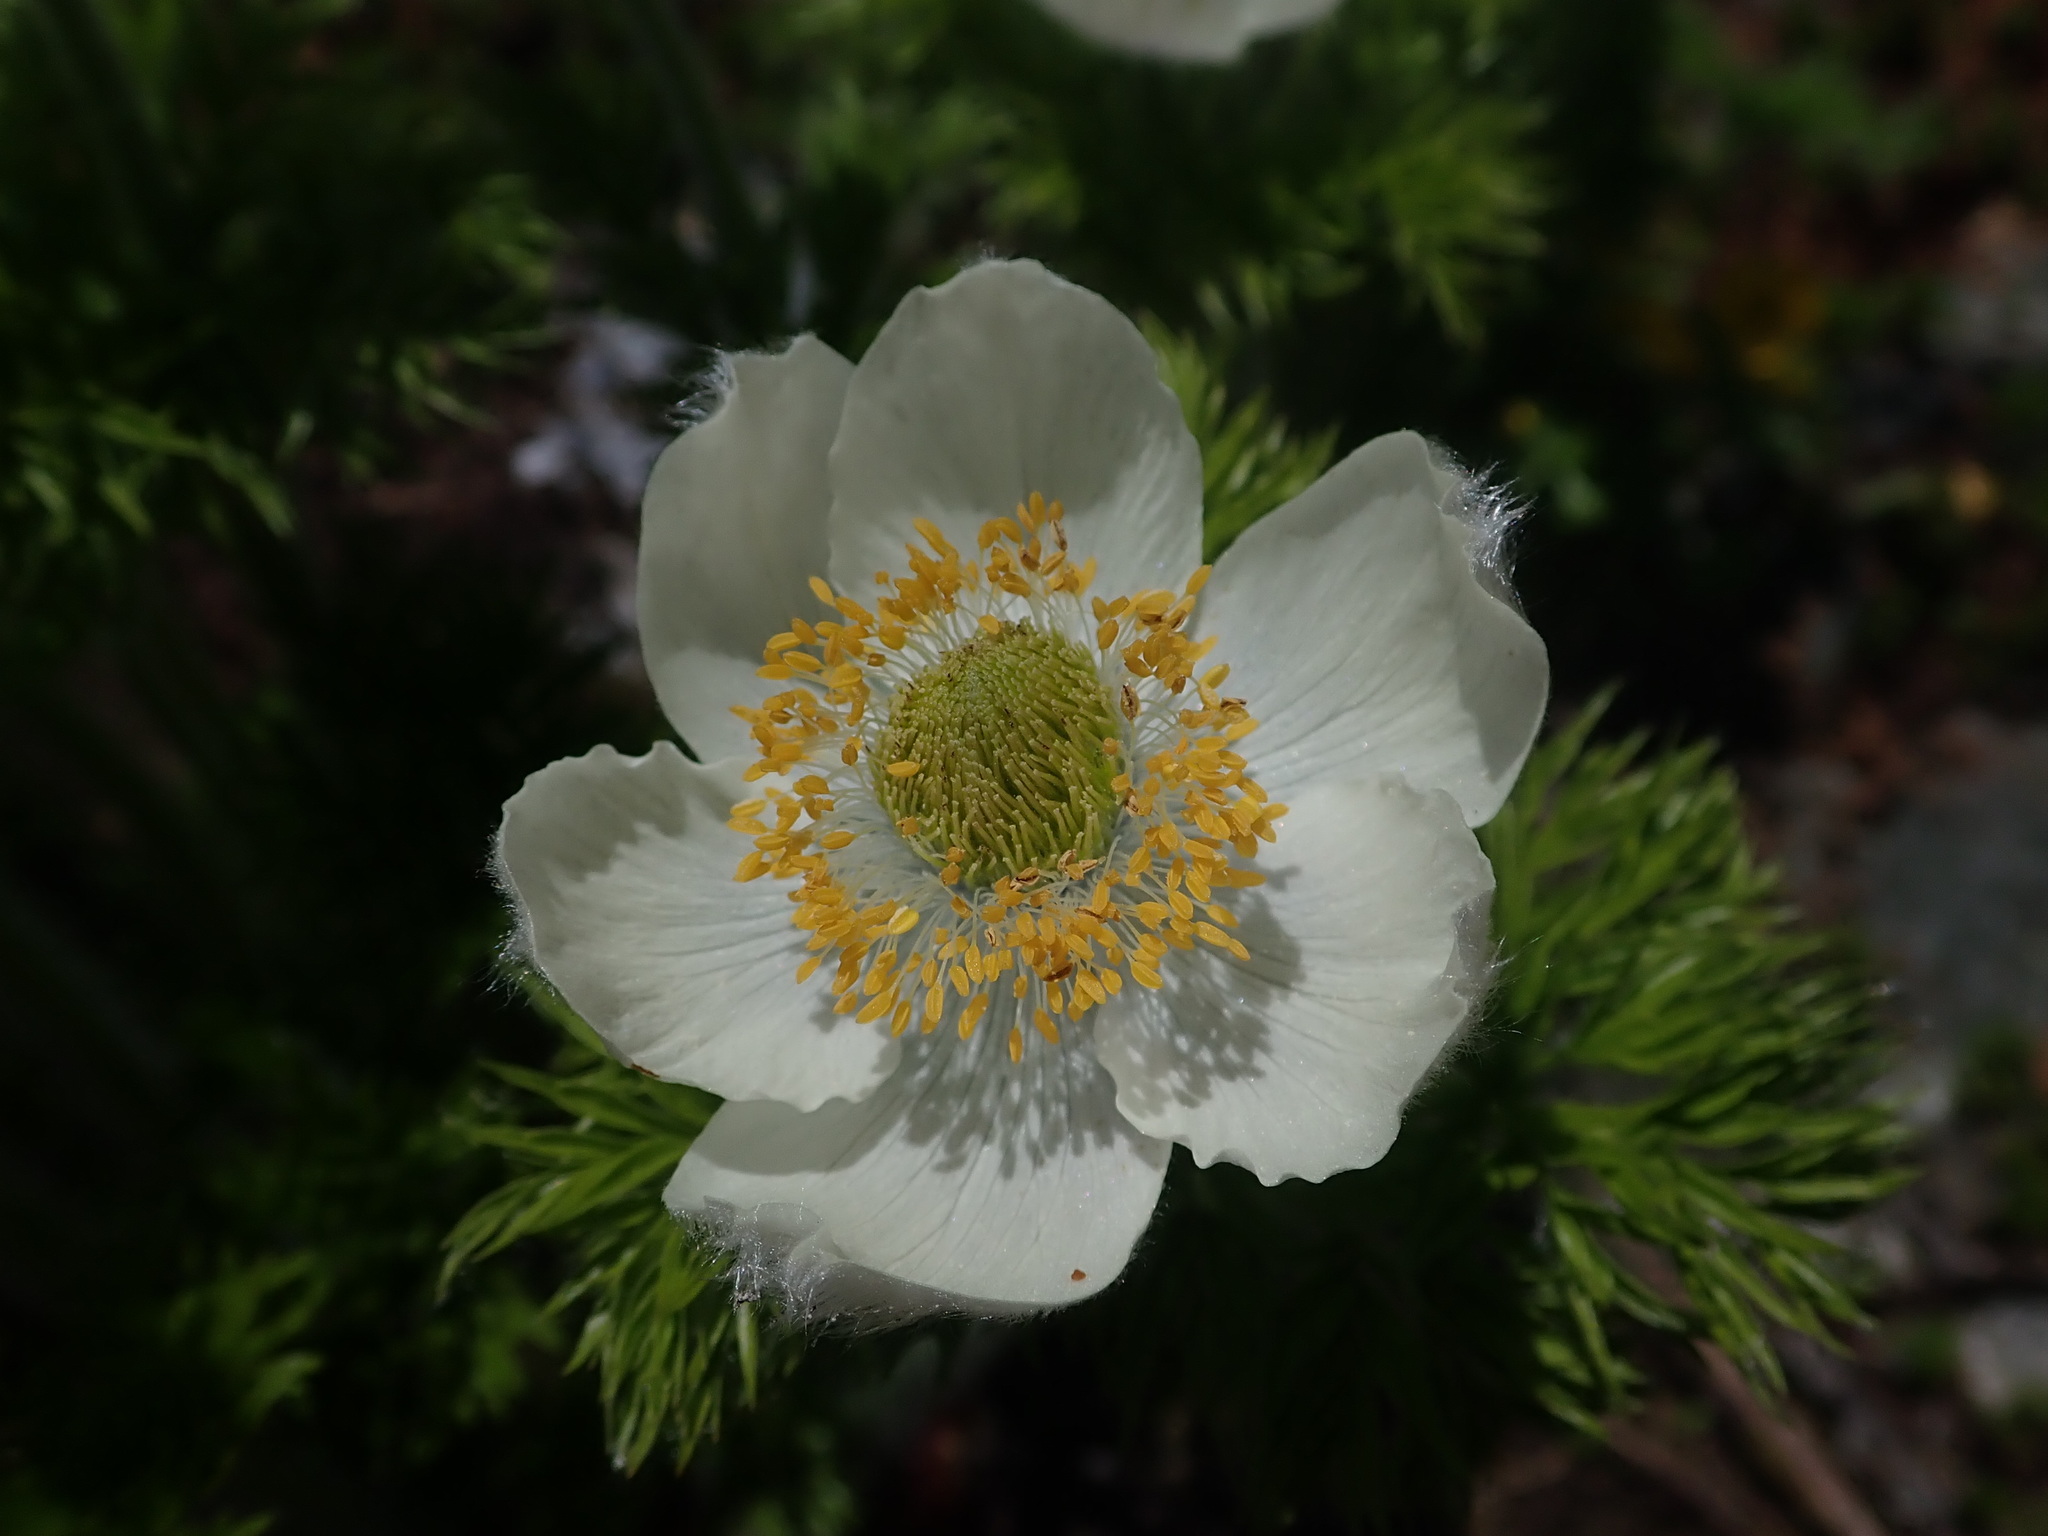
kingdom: Plantae
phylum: Tracheophyta
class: Magnoliopsida
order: Ranunculales
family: Ranunculaceae
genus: Pulsatilla
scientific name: Pulsatilla occidentalis
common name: Mountain pasqueflower
